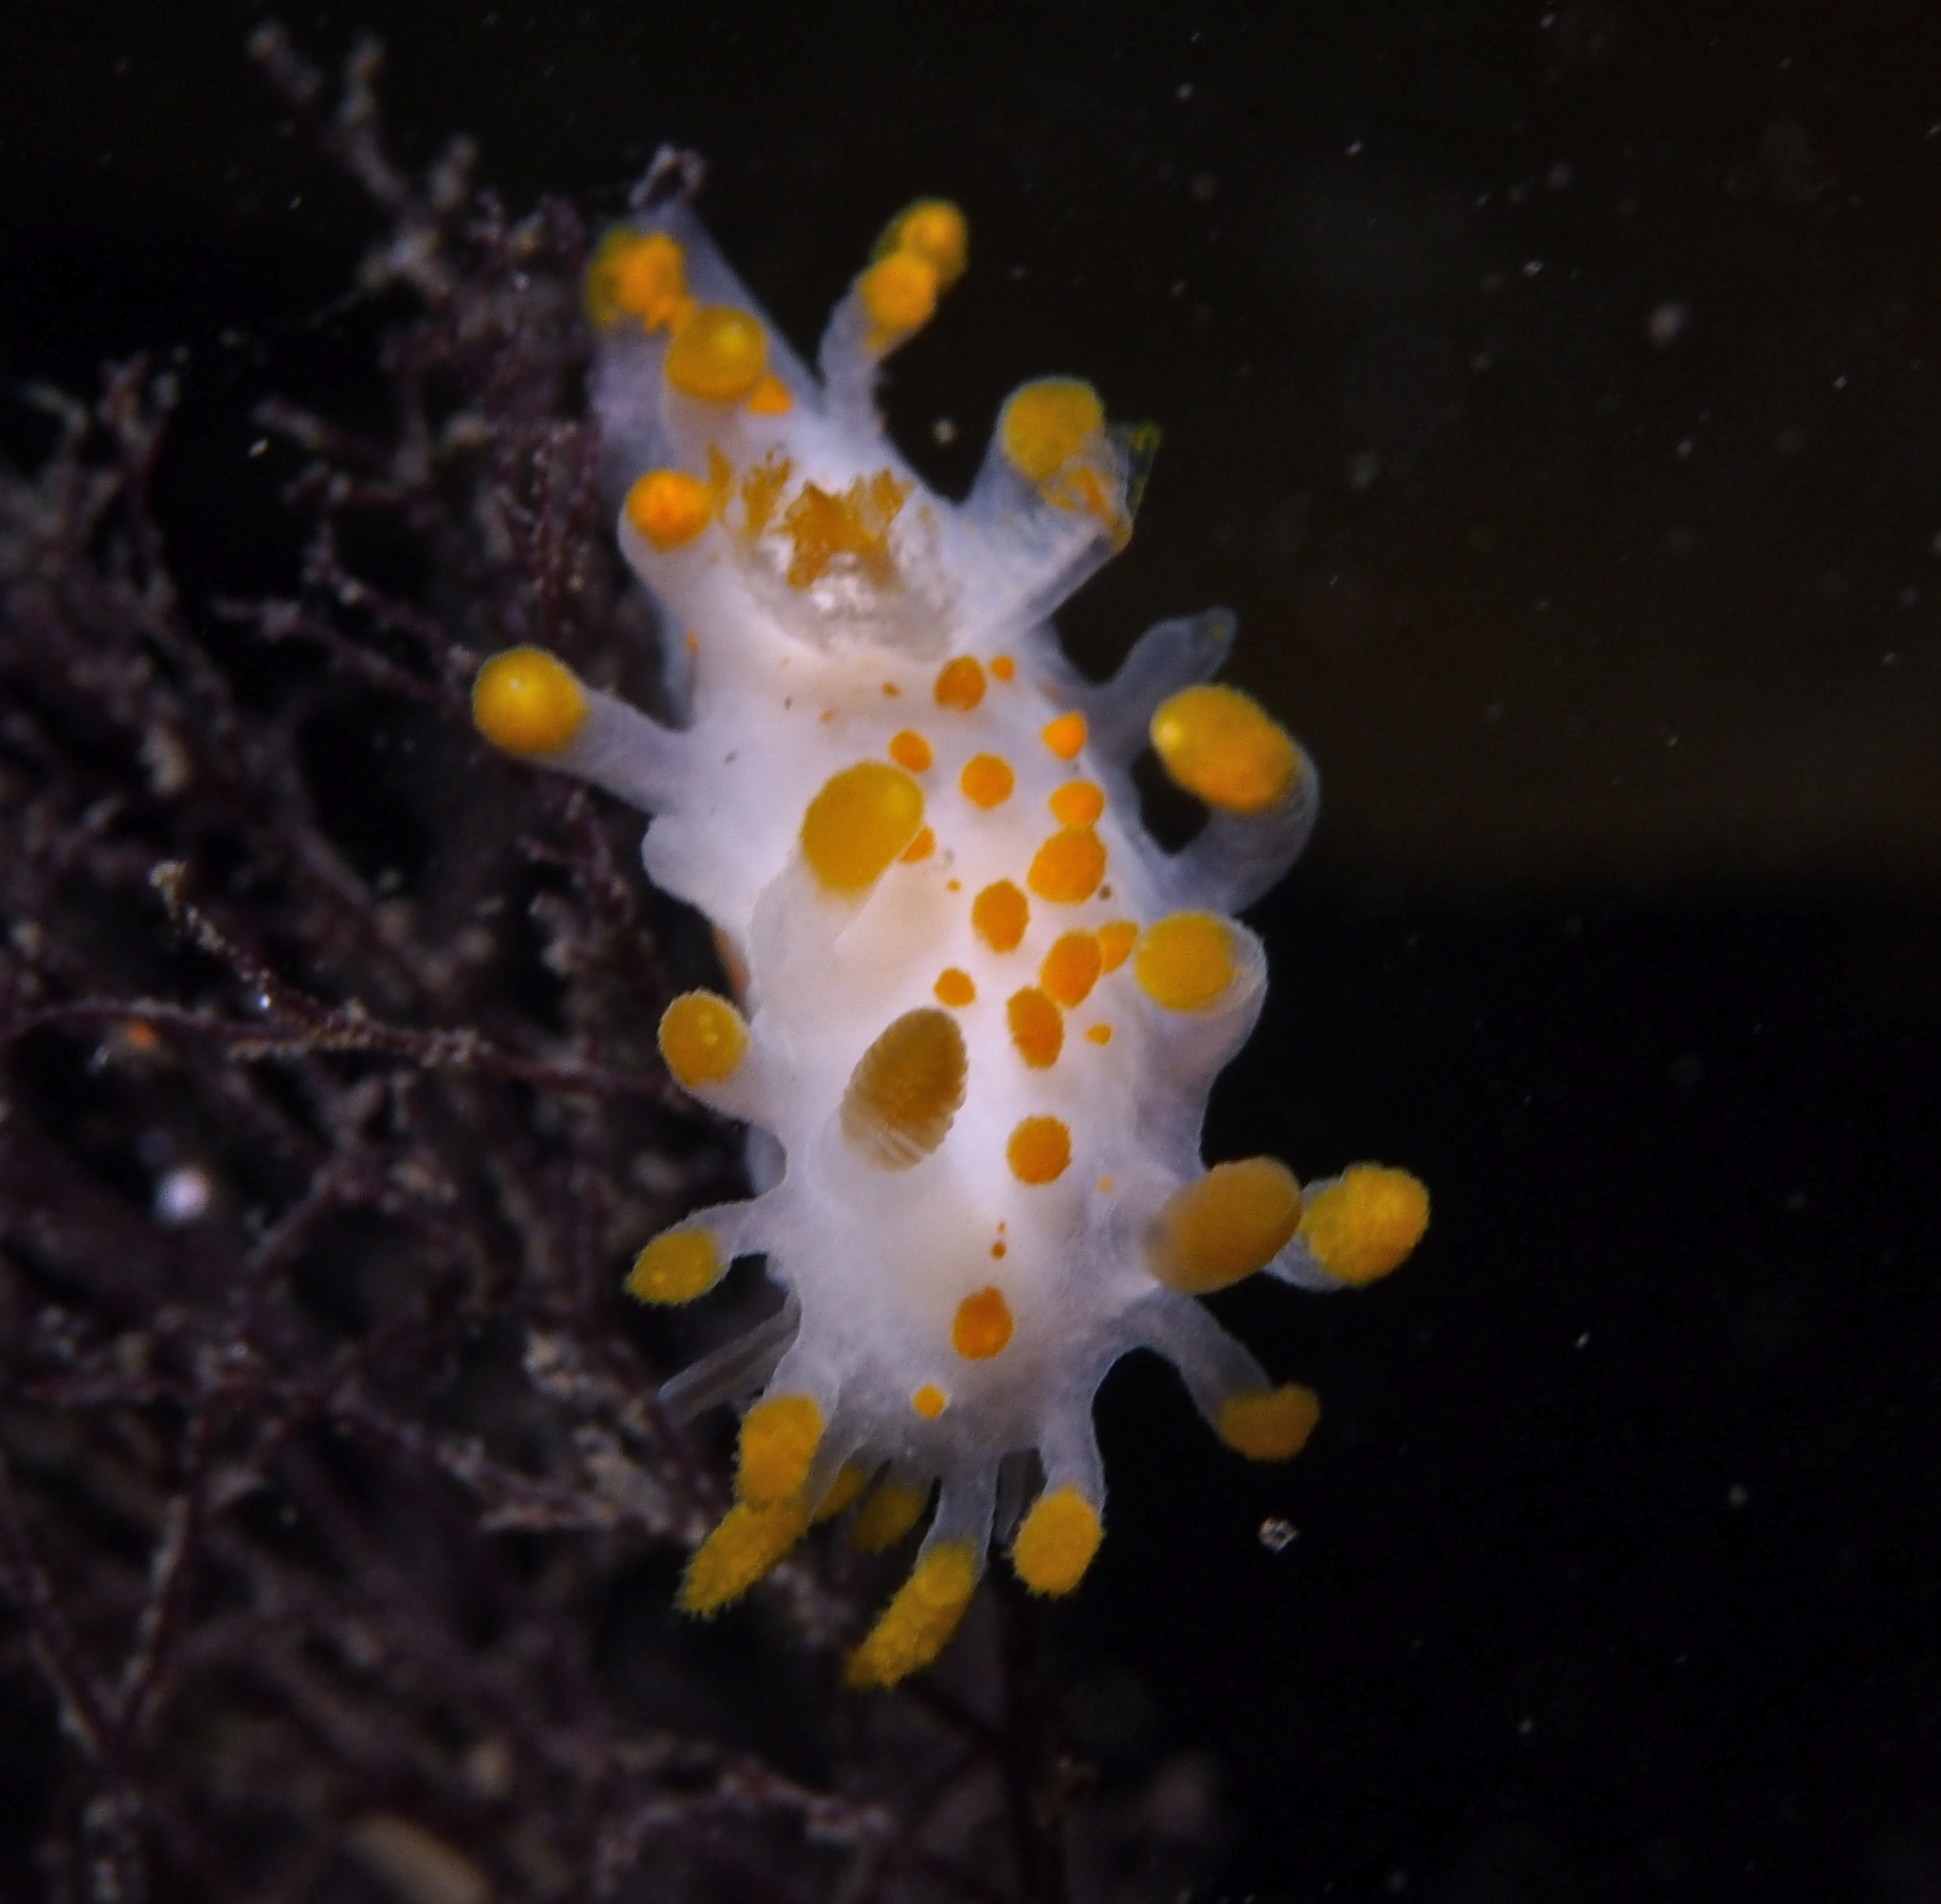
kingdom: Animalia
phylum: Mollusca
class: Gastropoda
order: Nudibranchia
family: Polyceridae
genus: Limacia
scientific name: Limacia clavigera
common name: Orange-clubbed sea slug
